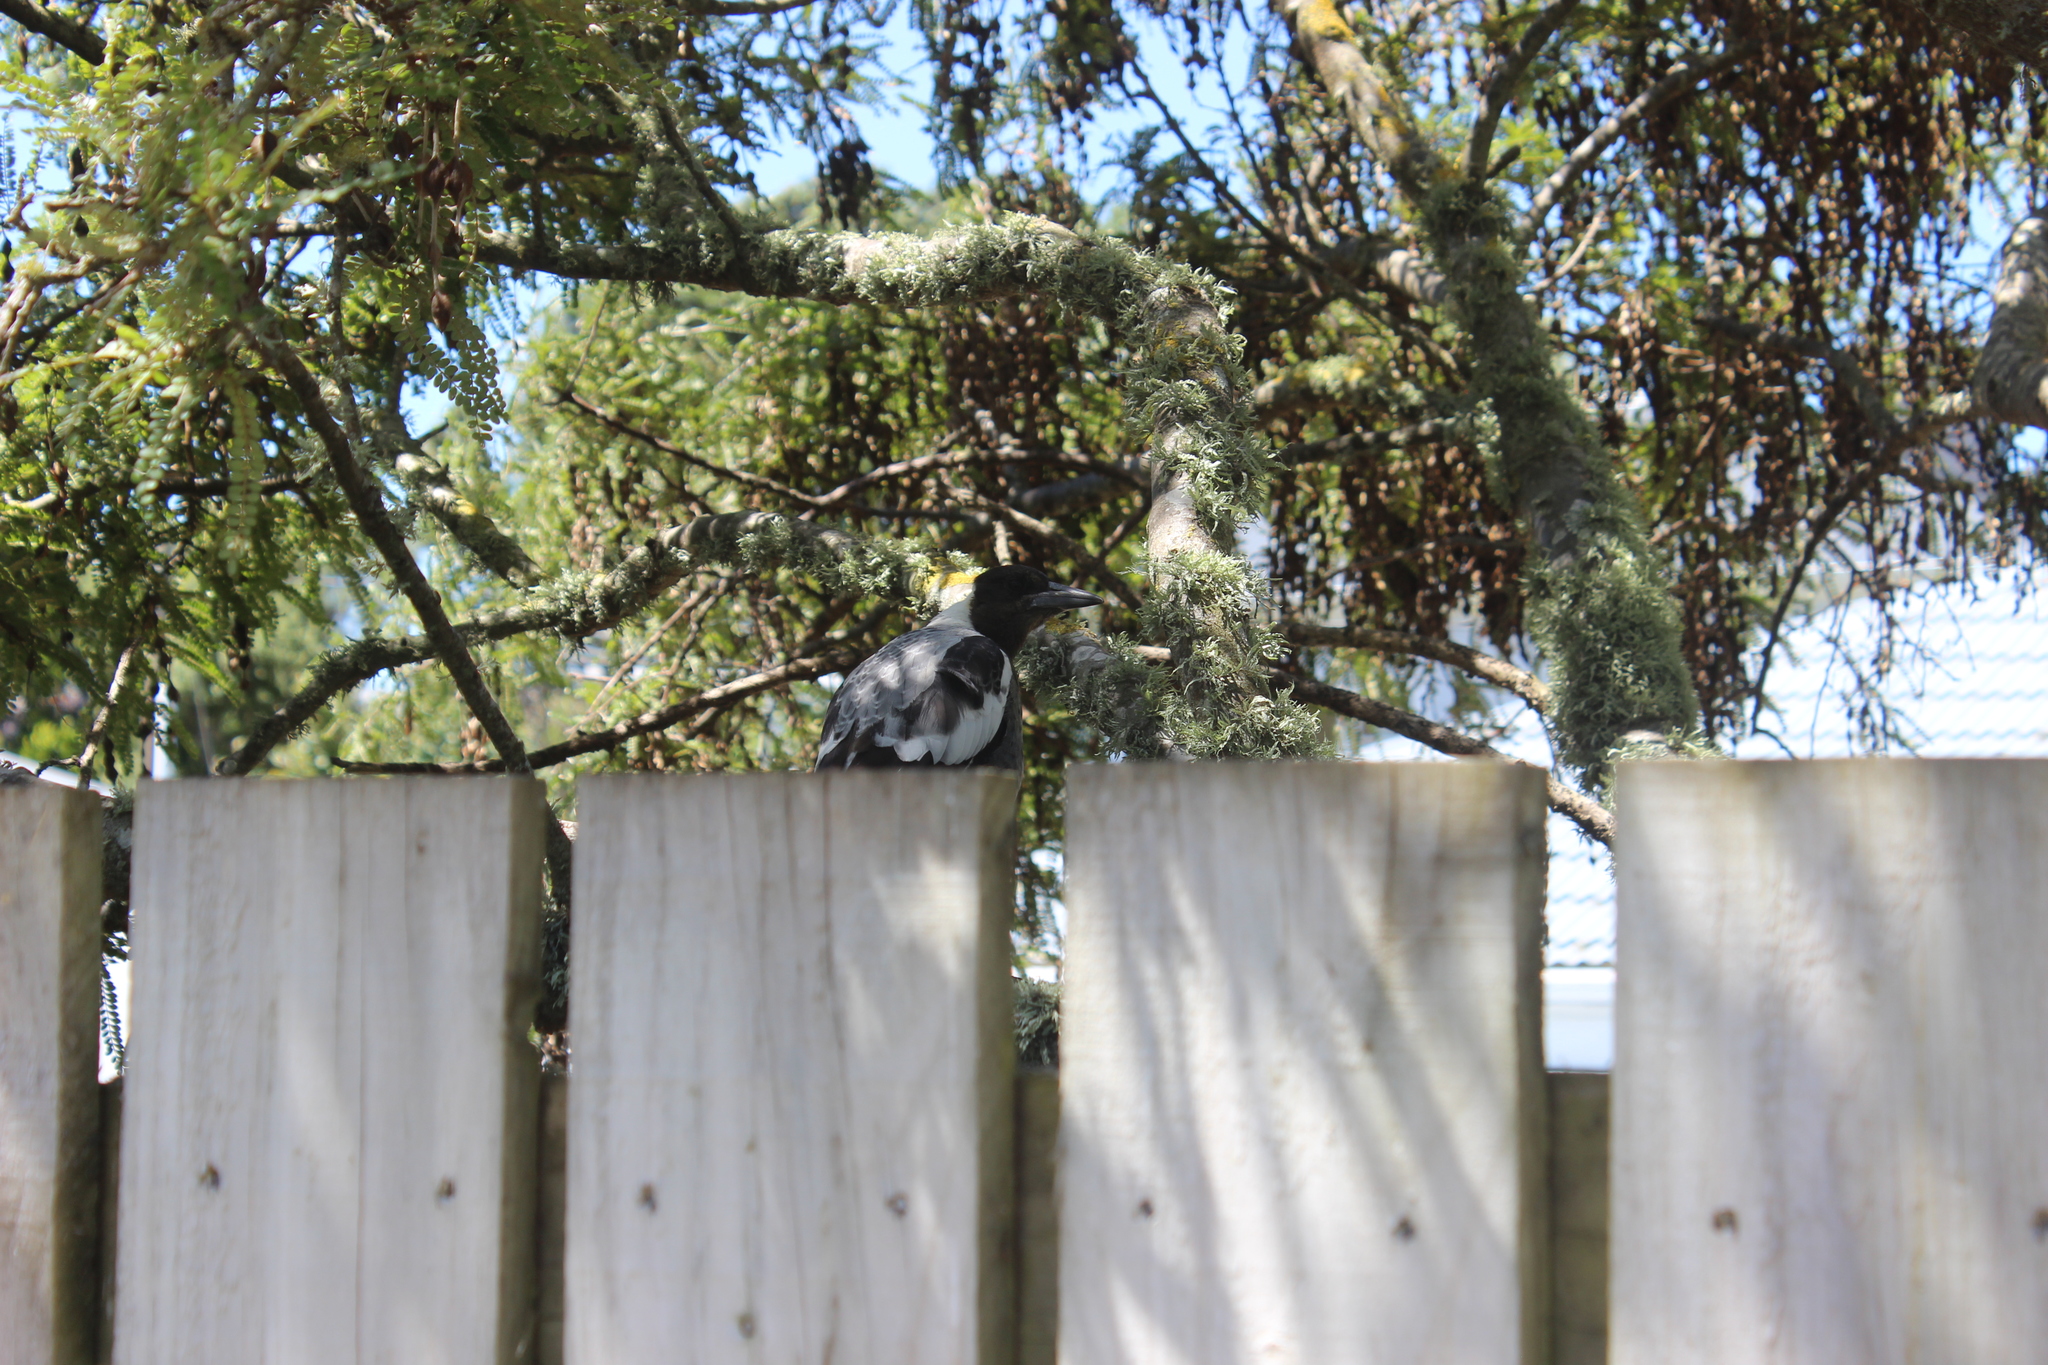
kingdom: Animalia
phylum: Chordata
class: Aves
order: Passeriformes
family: Cracticidae
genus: Gymnorhina
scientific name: Gymnorhina tibicen
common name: Australian magpie
